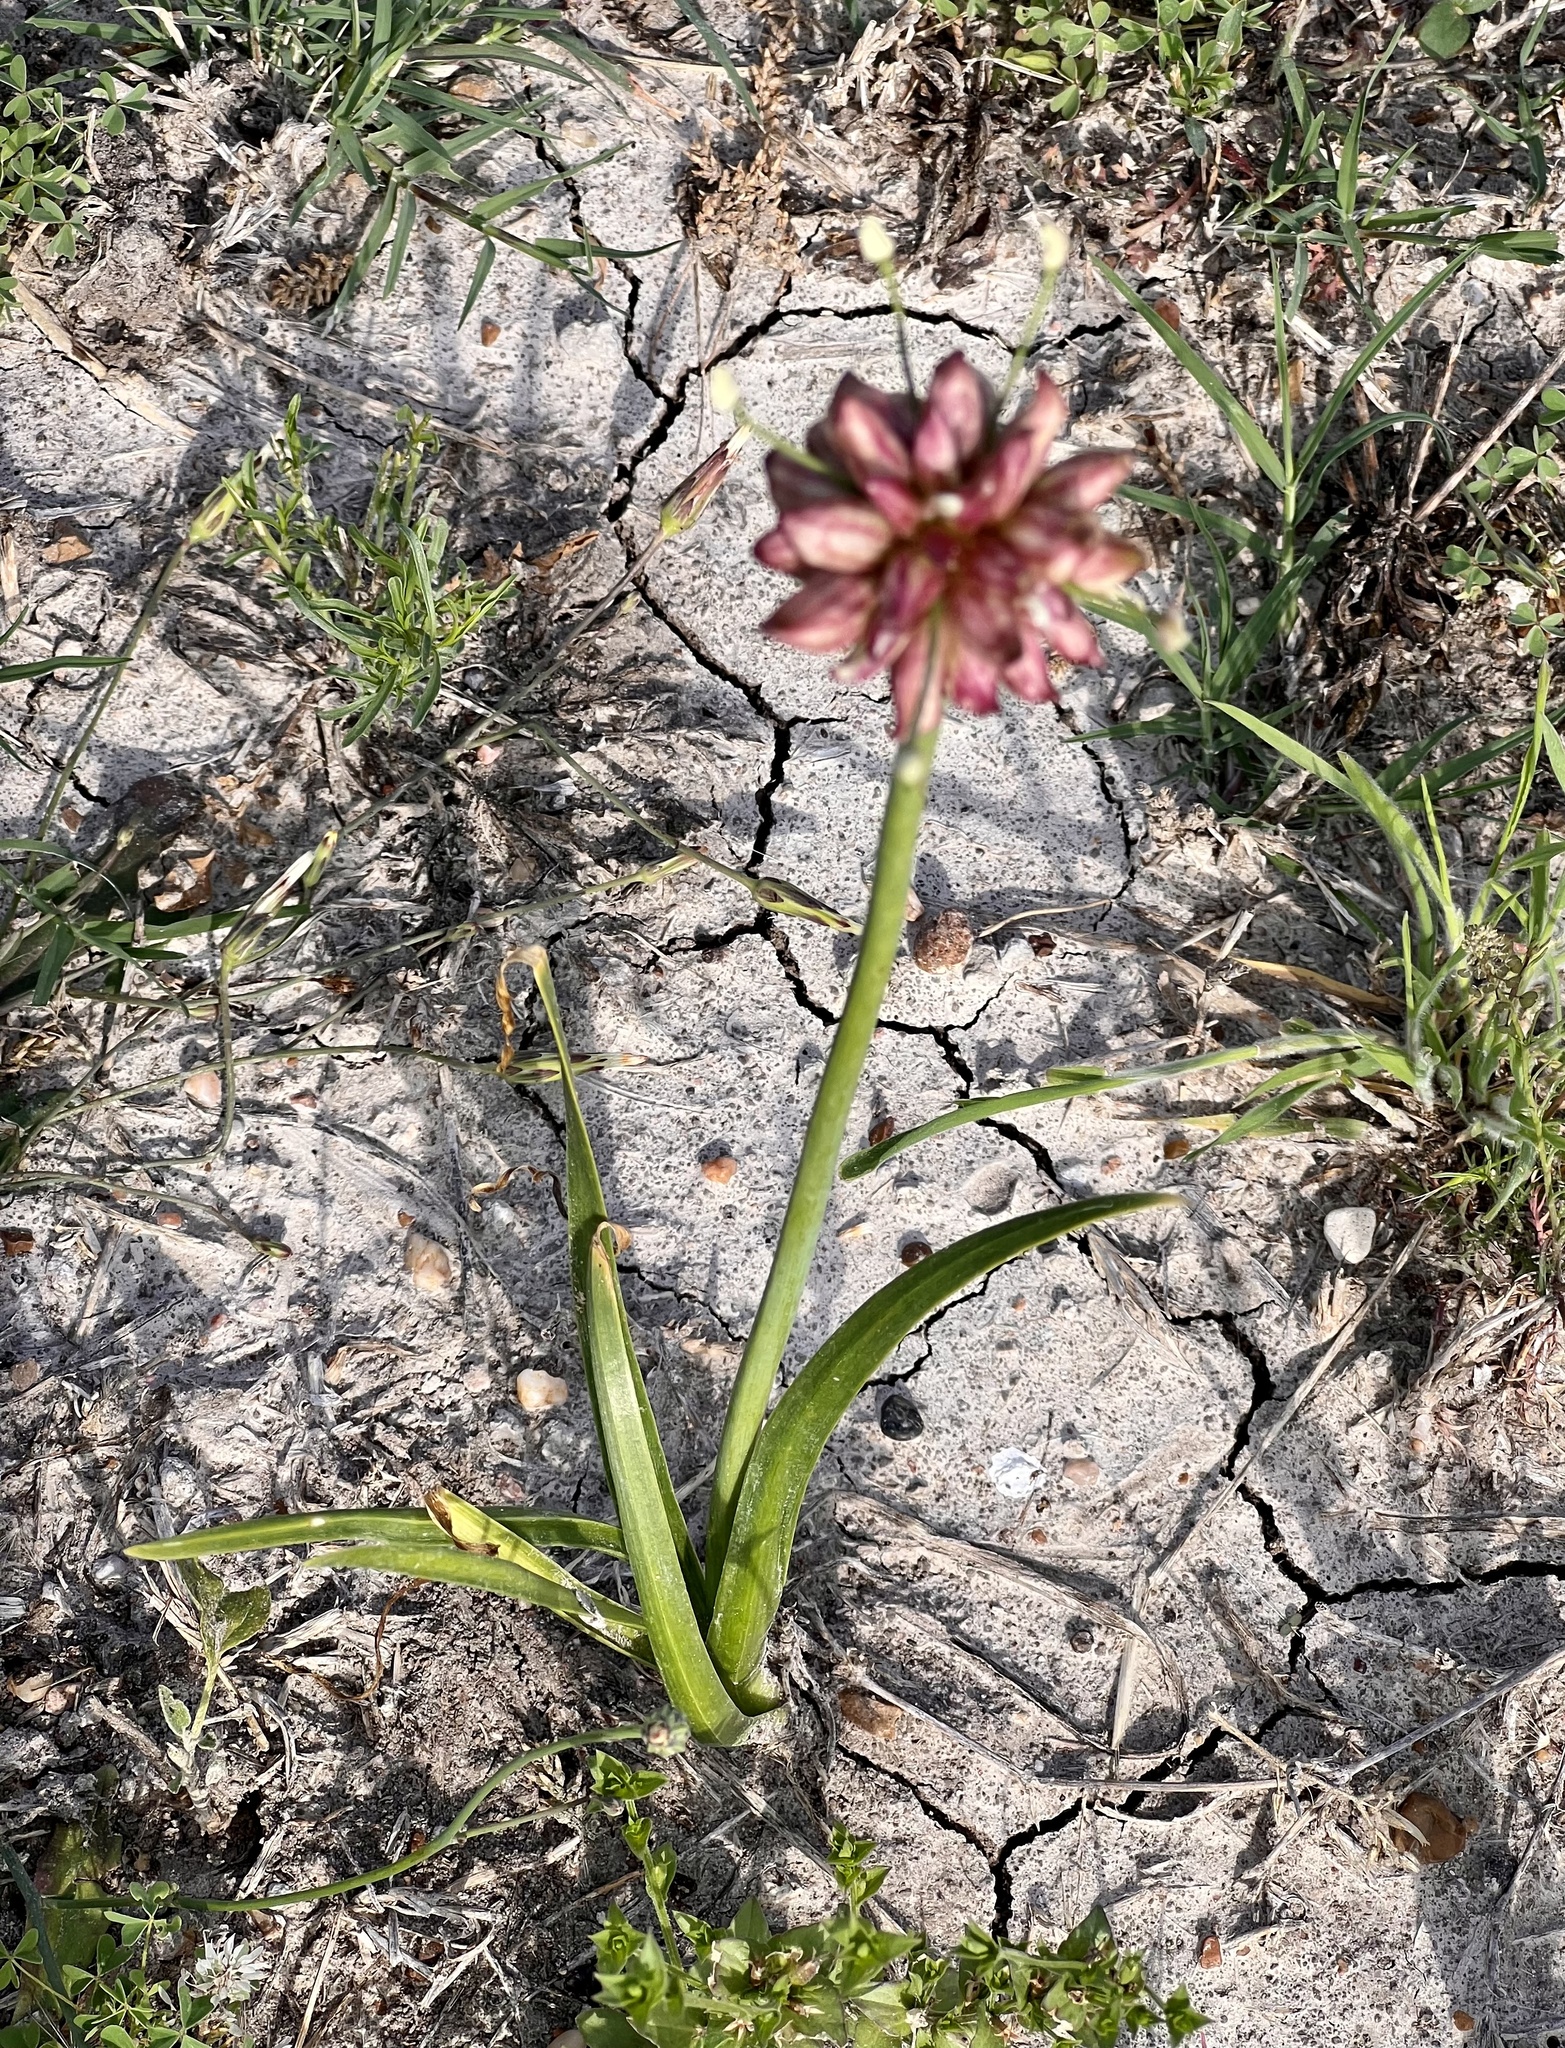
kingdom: Plantae
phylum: Tracheophyta
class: Liliopsida
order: Asparagales
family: Amaryllidaceae
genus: Allium
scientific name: Allium canadense
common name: Meadow garlic
